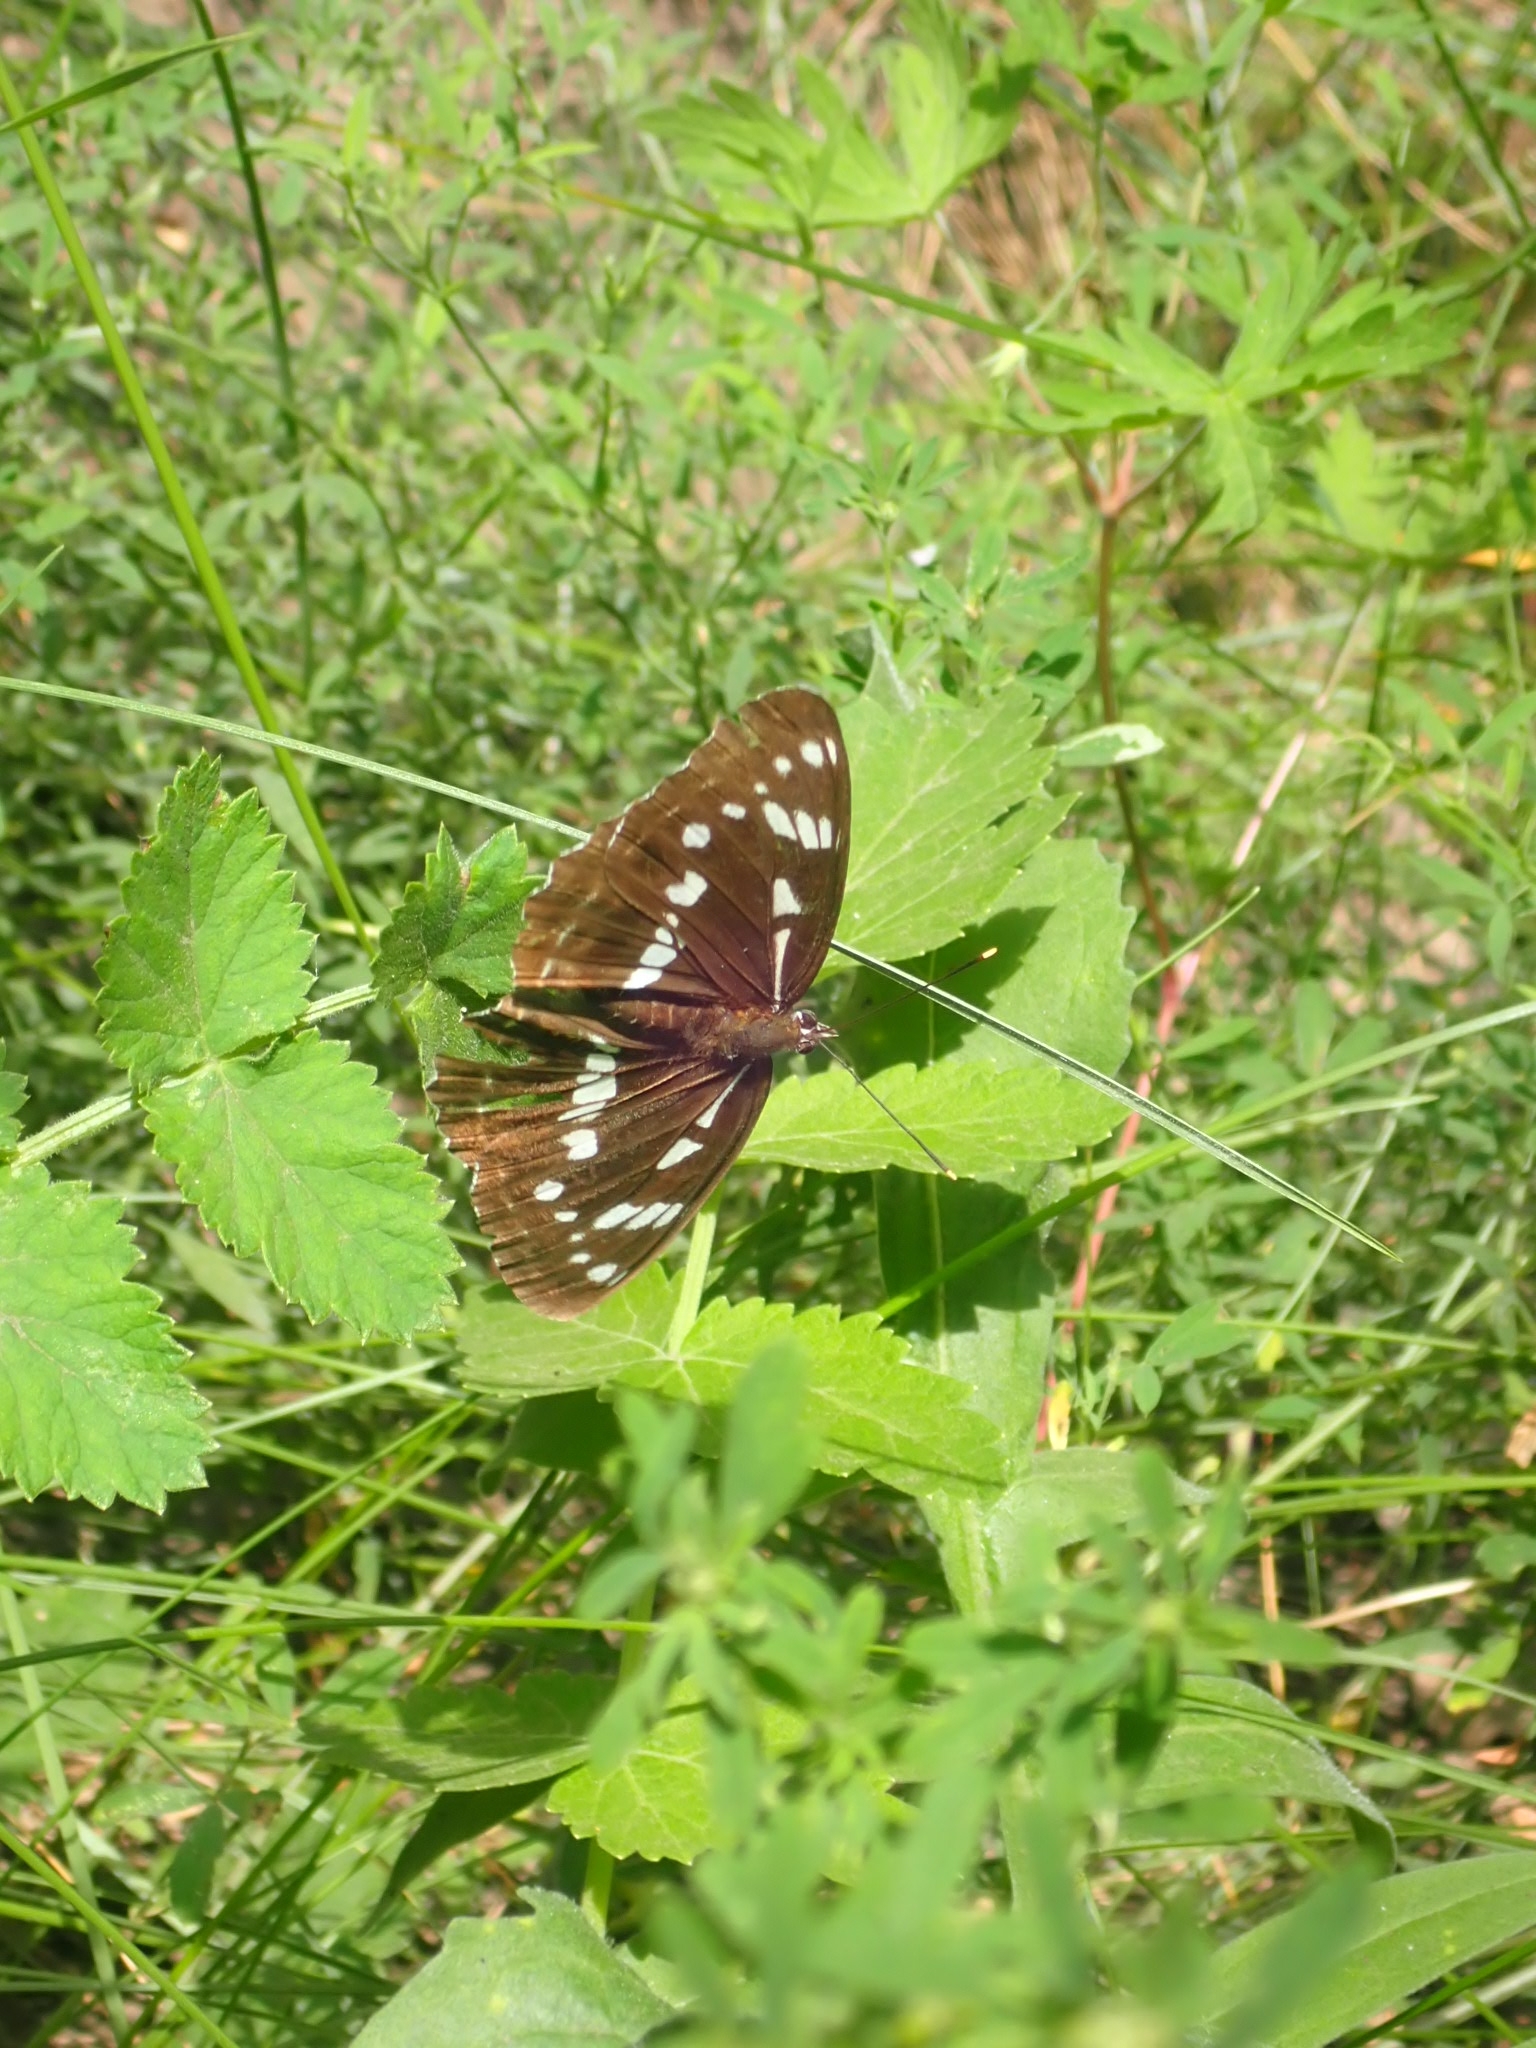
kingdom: Animalia
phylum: Arthropoda
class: Insecta
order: Lepidoptera
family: Nymphalidae
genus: Limenitis
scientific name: Limenitis helmanni
